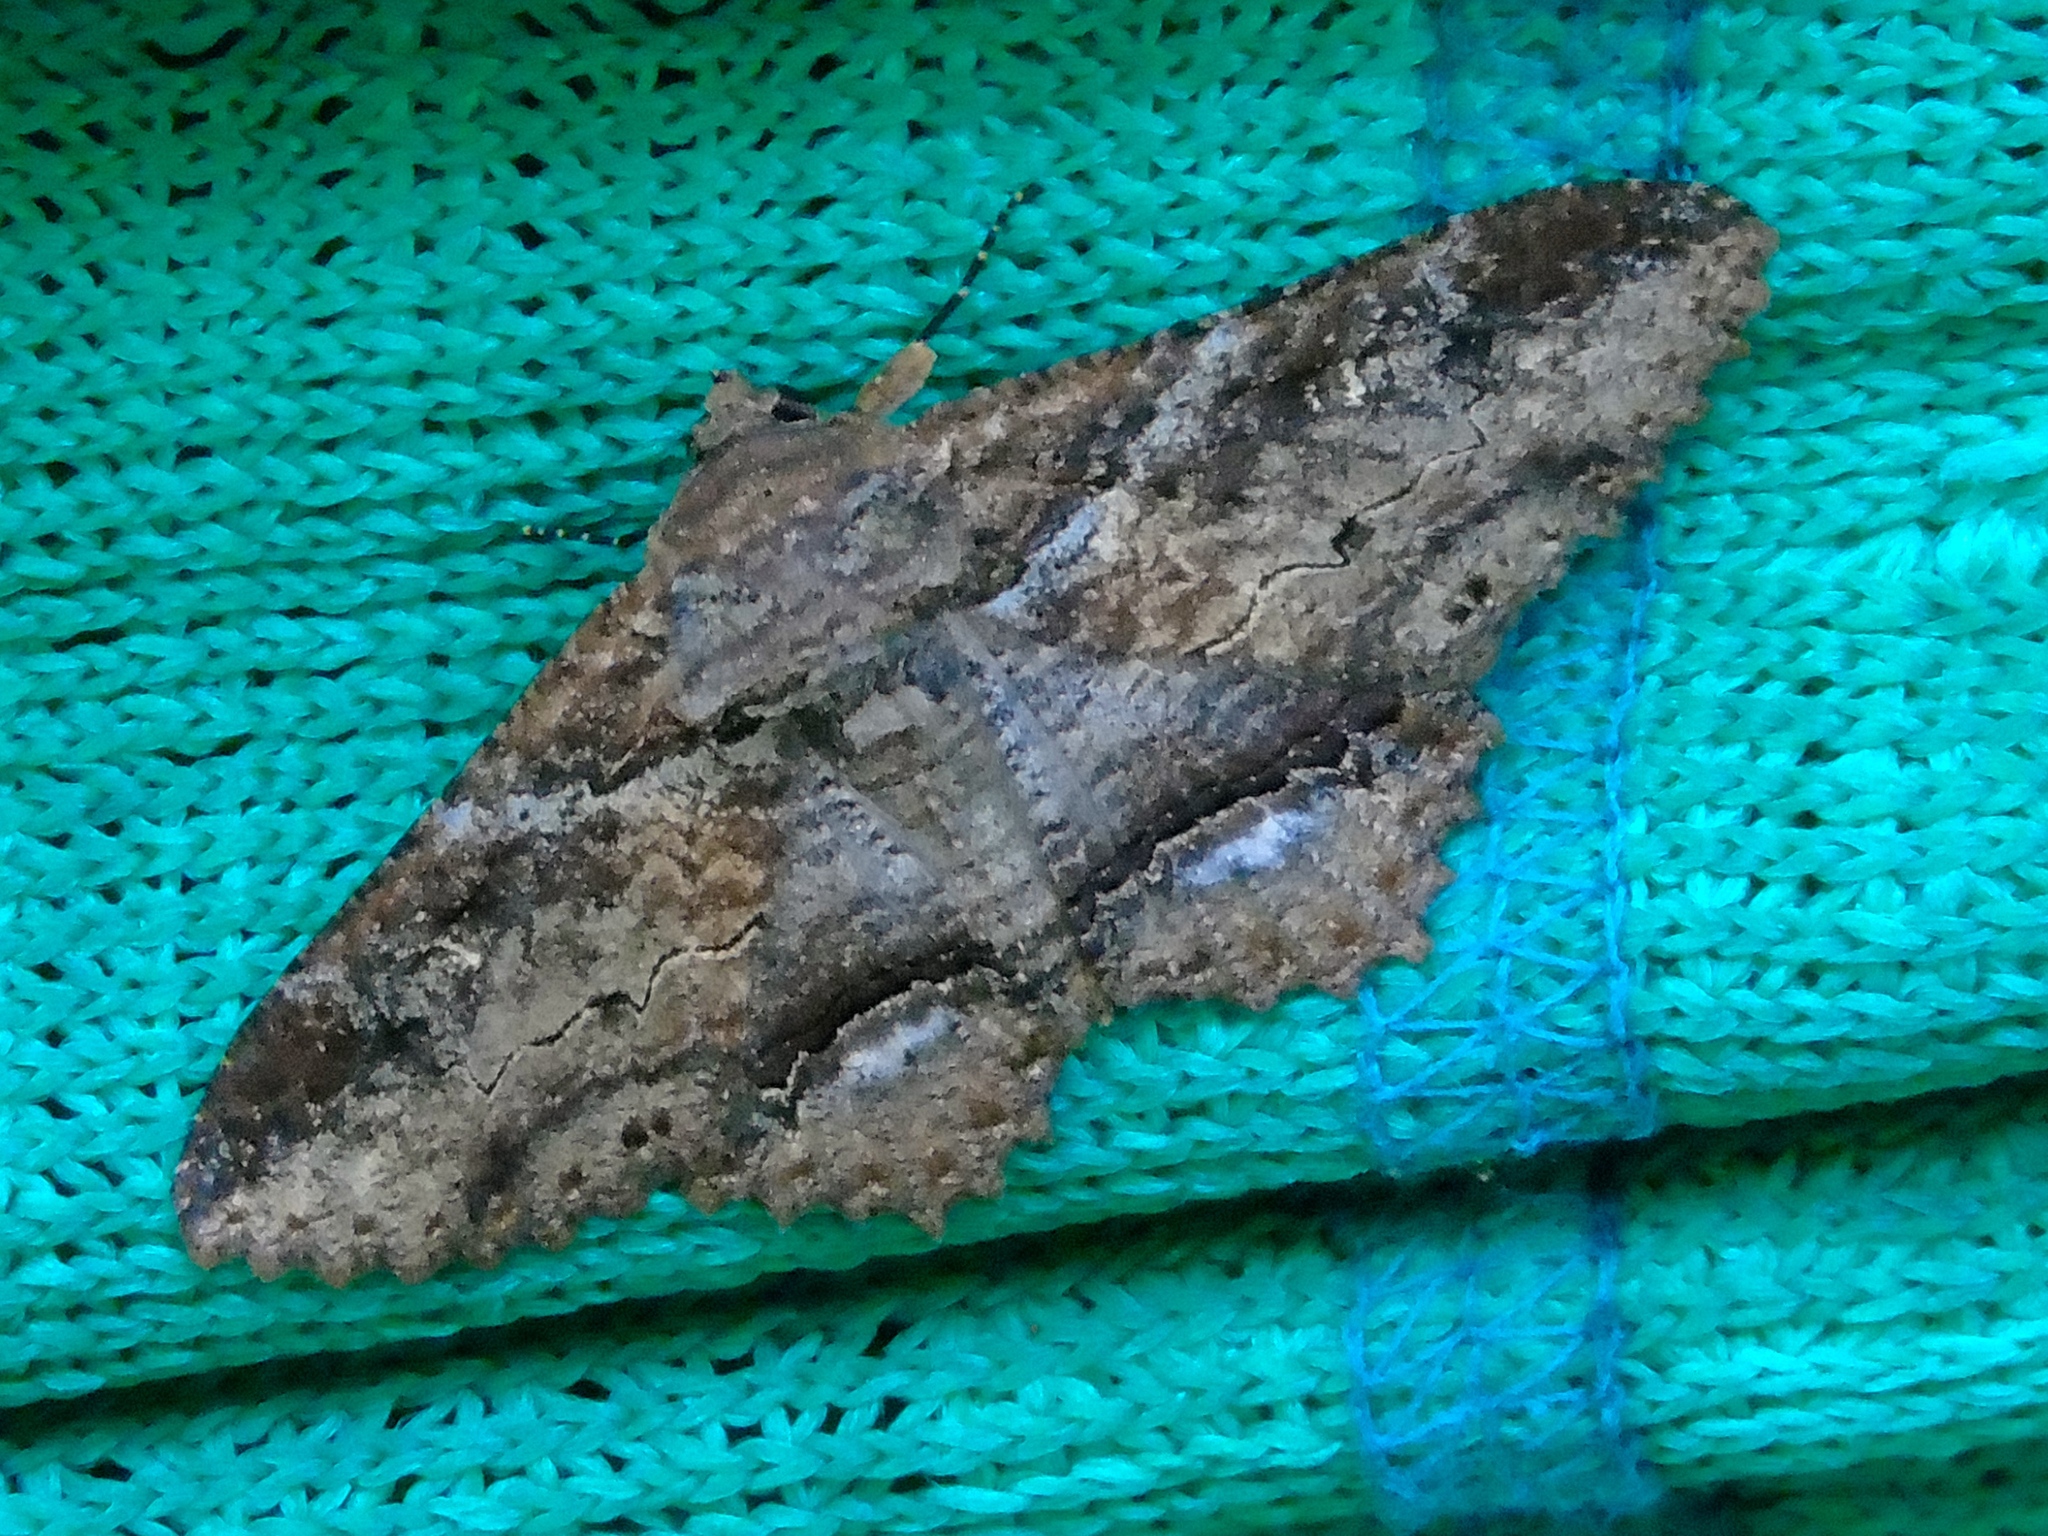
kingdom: Animalia
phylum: Arthropoda
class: Insecta
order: Lepidoptera
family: Erebidae
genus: Zale
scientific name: Zale
